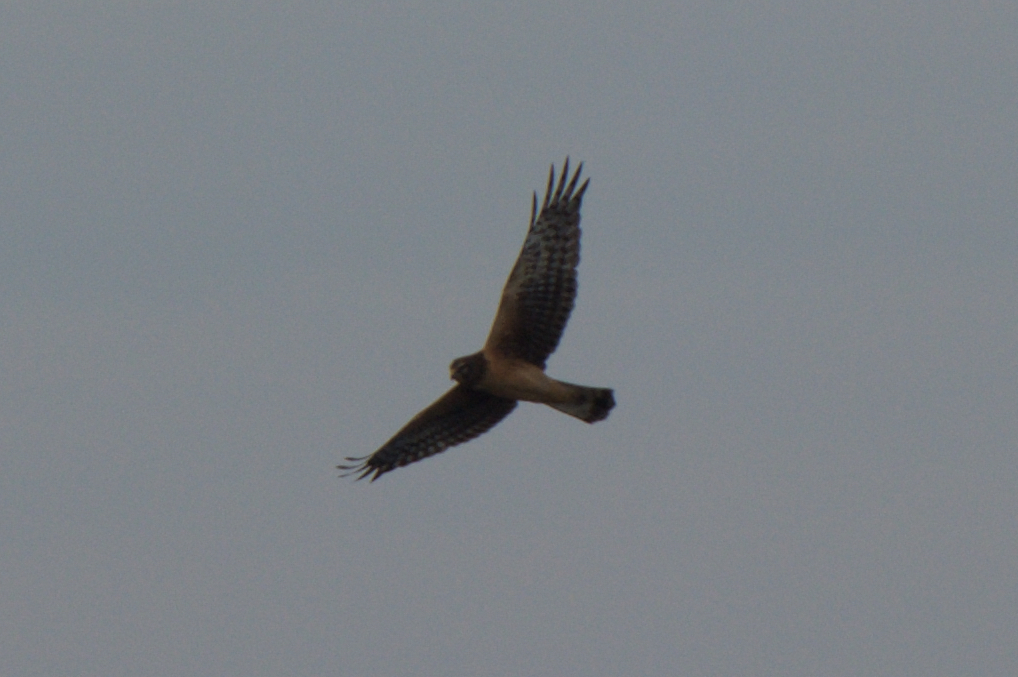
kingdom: Animalia
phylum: Chordata
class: Aves
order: Accipitriformes
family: Accipitridae
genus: Circus
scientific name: Circus cyaneus
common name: Hen harrier
